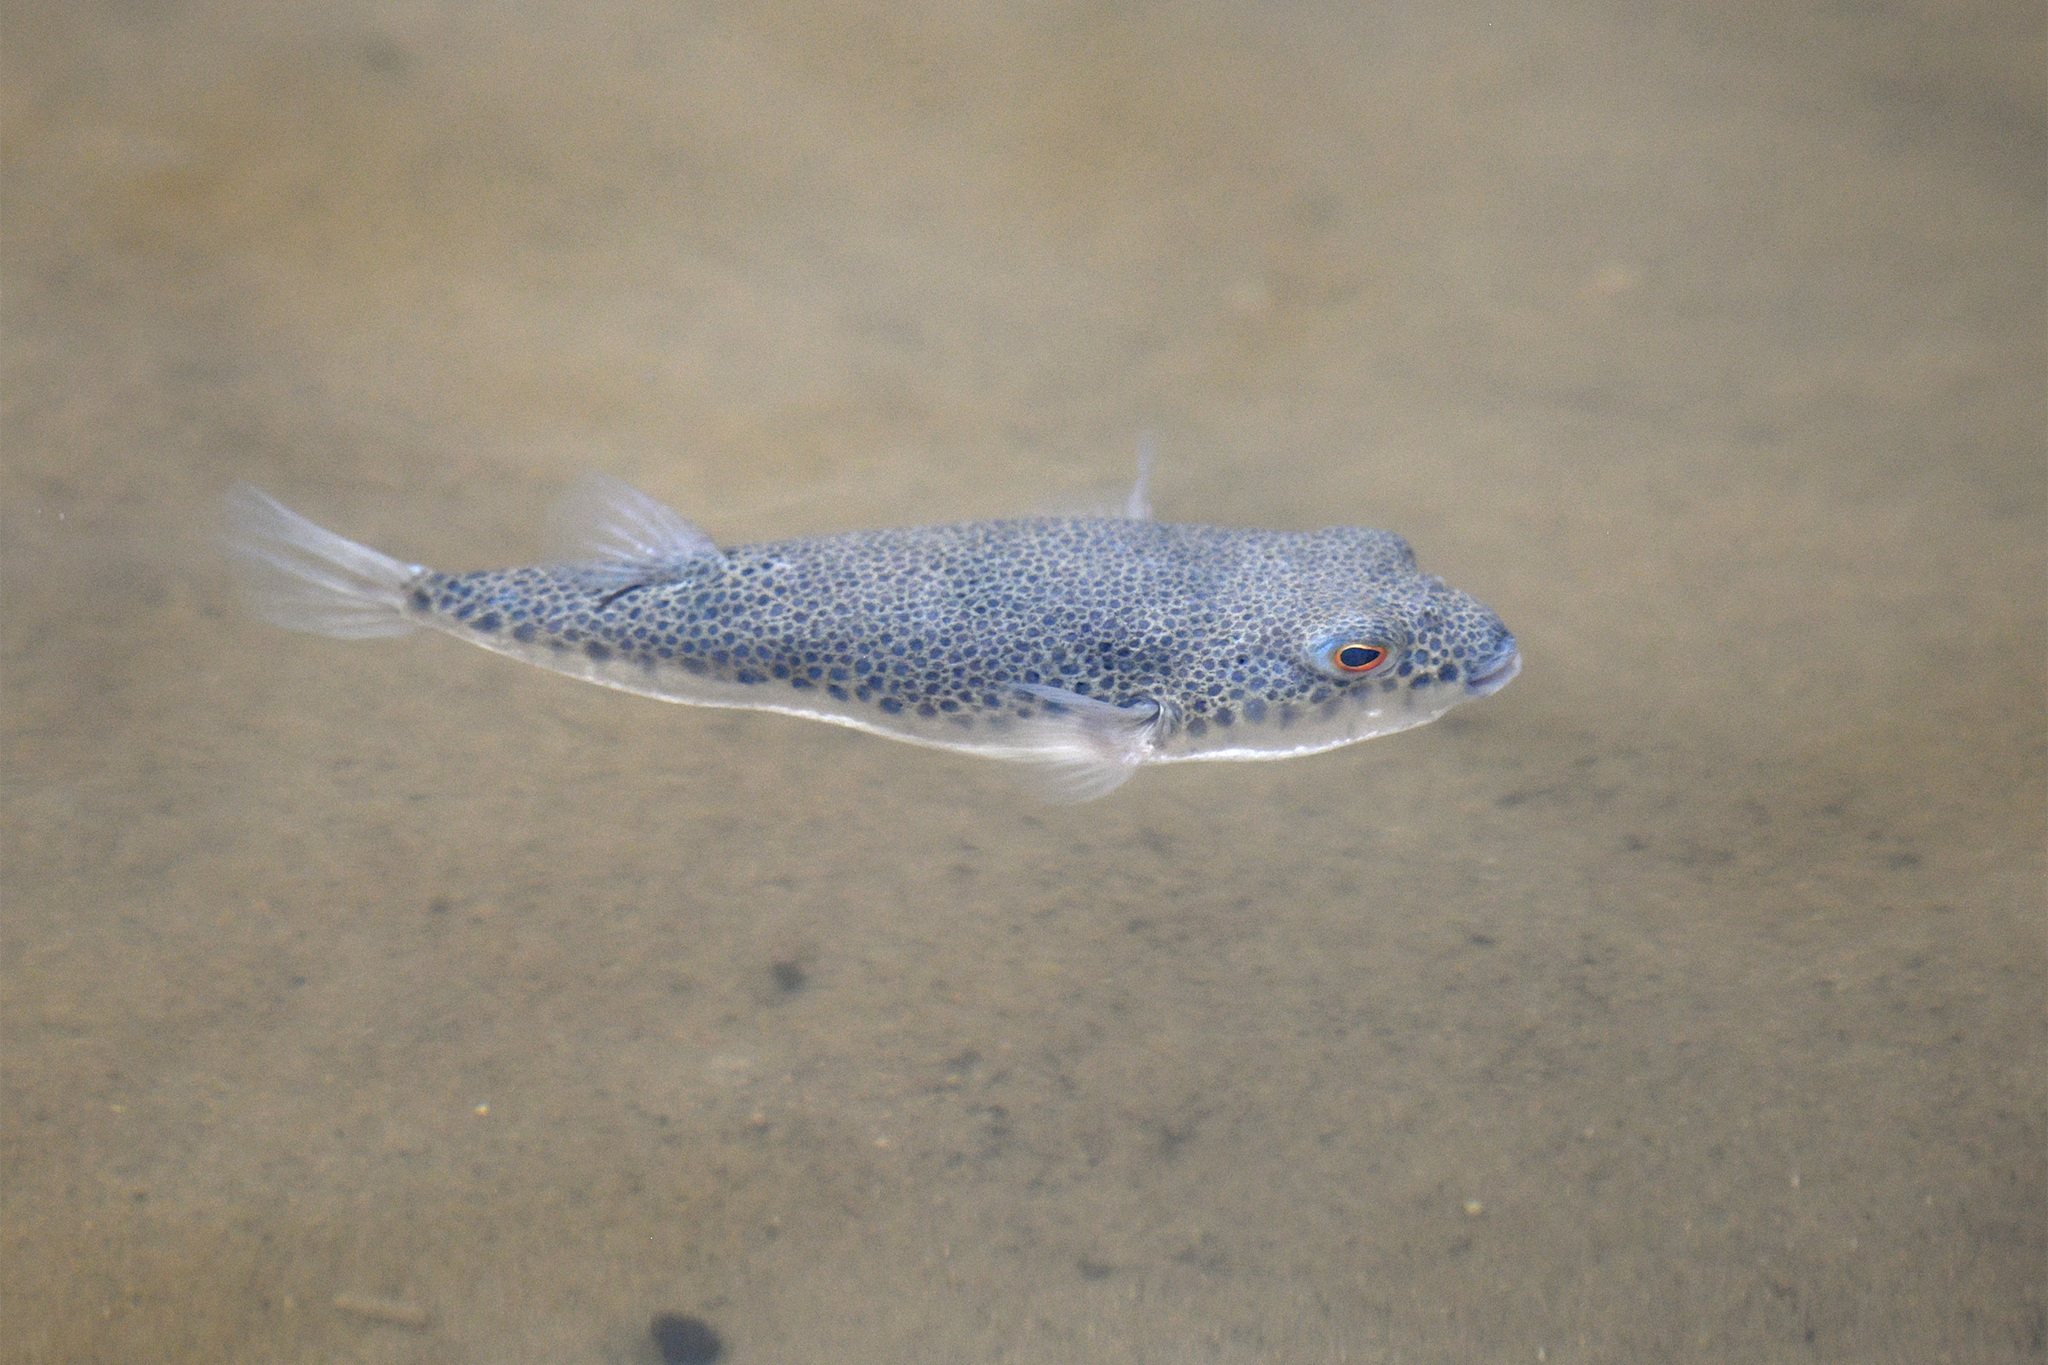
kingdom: Animalia
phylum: Chordata
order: Tetraodontiformes
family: Tetraodontidae
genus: Tetractenos
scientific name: Tetractenos hamiltoni
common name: Common toadfish
